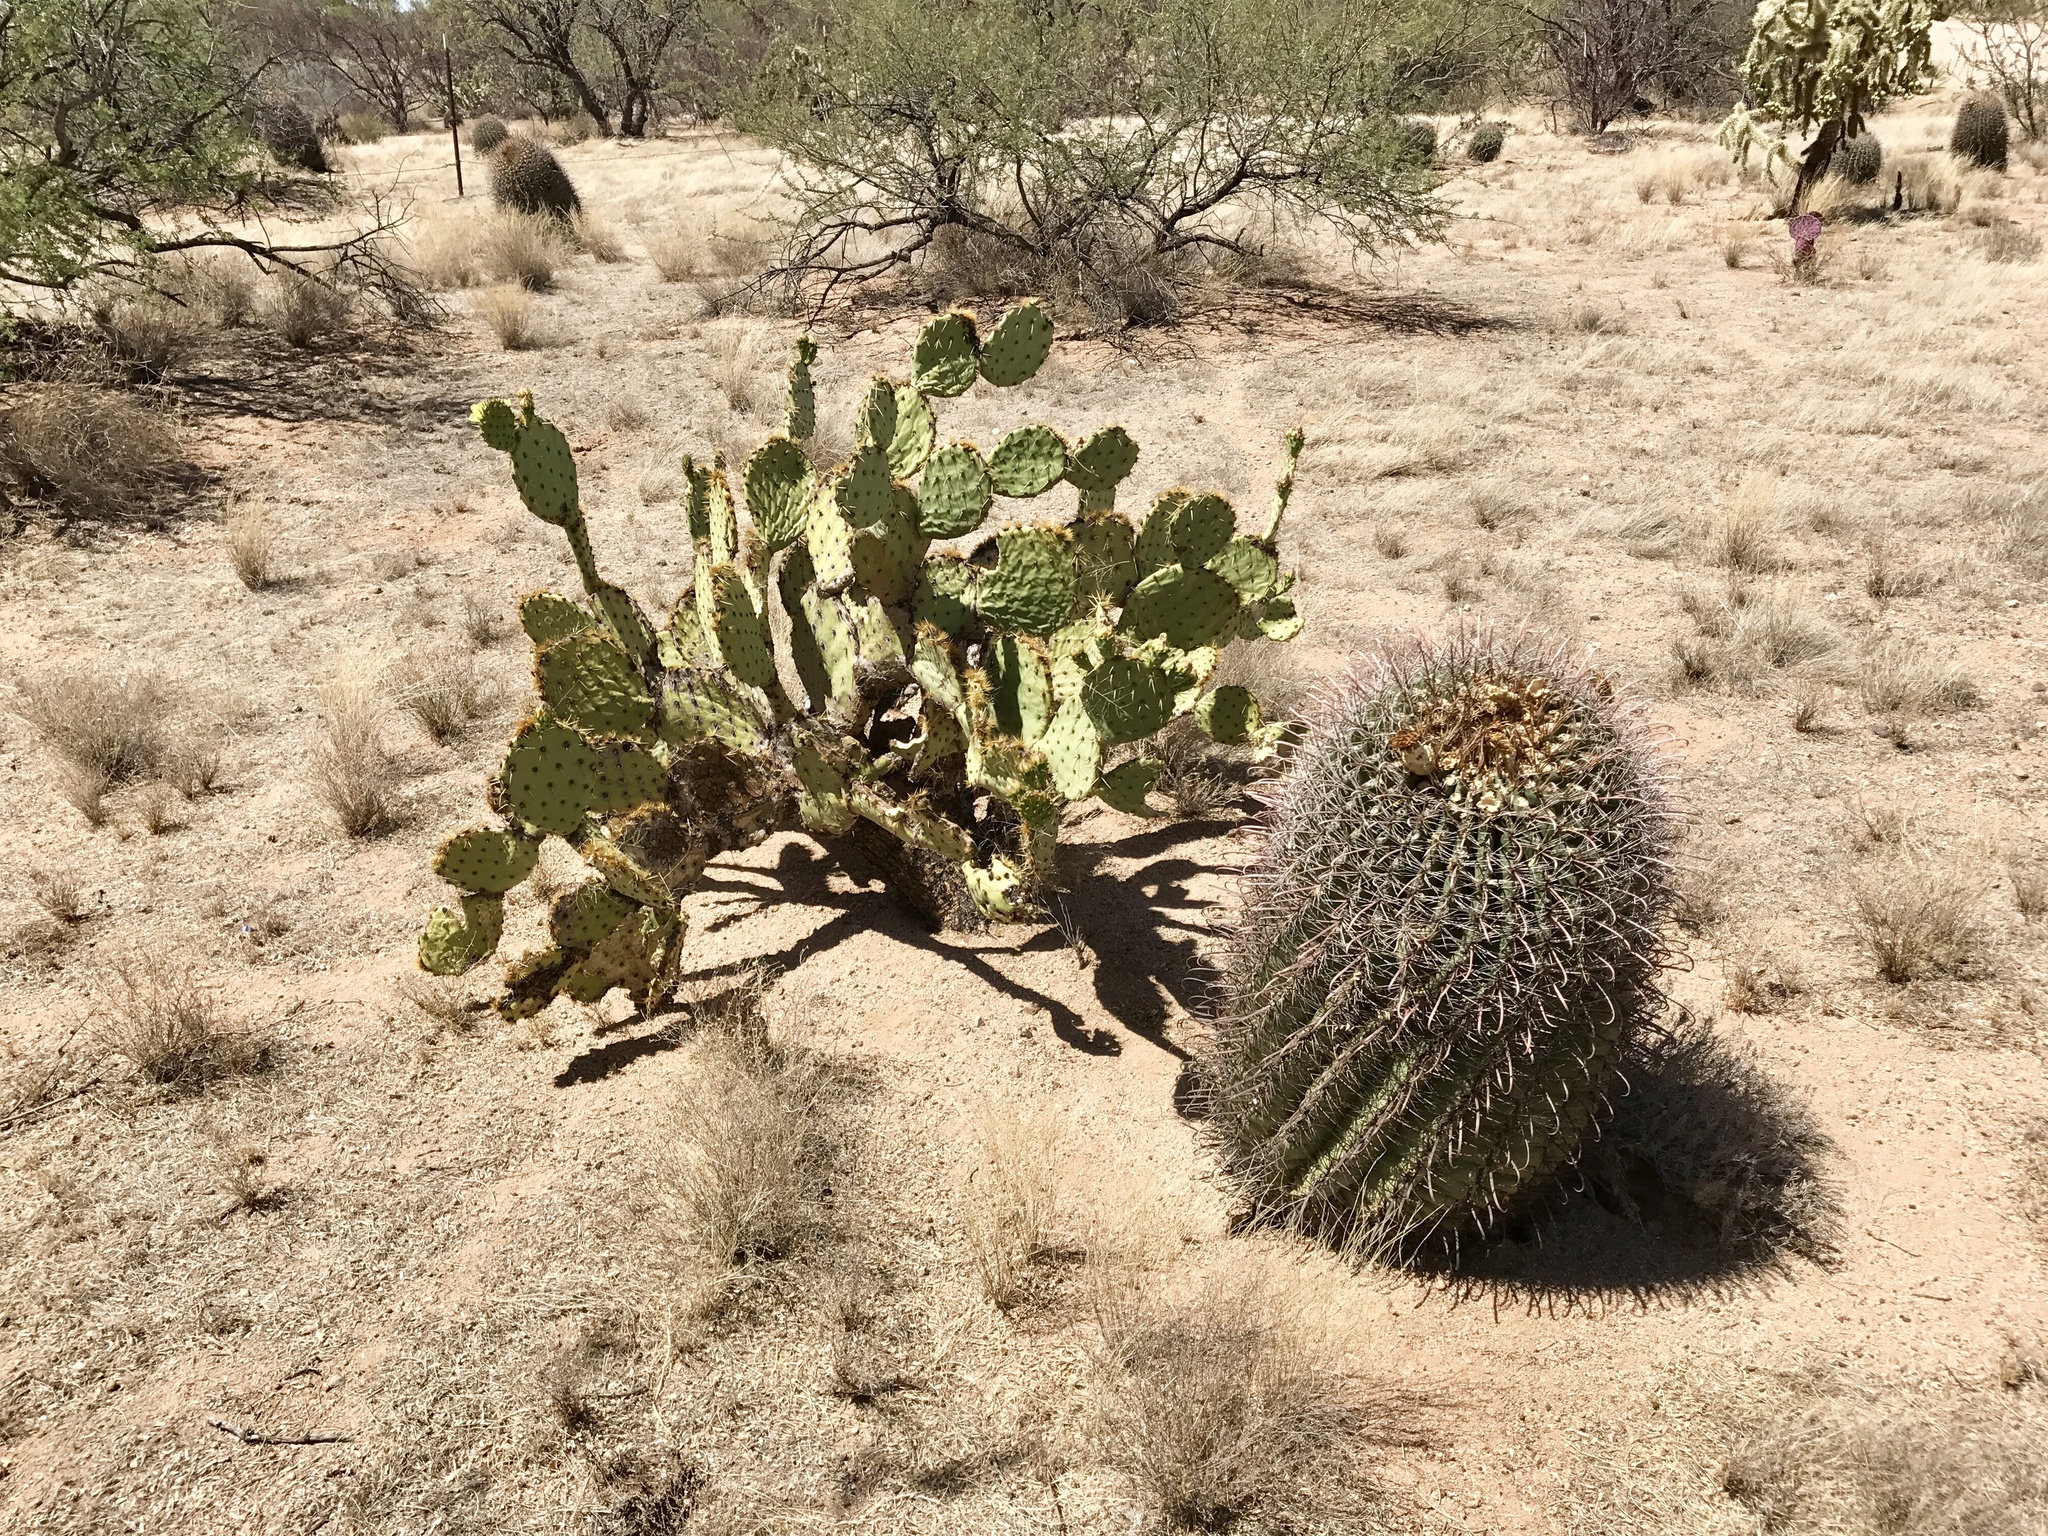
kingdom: Plantae
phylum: Tracheophyta
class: Magnoliopsida
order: Caryophyllales
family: Cactaceae
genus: Ferocactus
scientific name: Ferocactus wislizeni
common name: Candy barrel cactus
